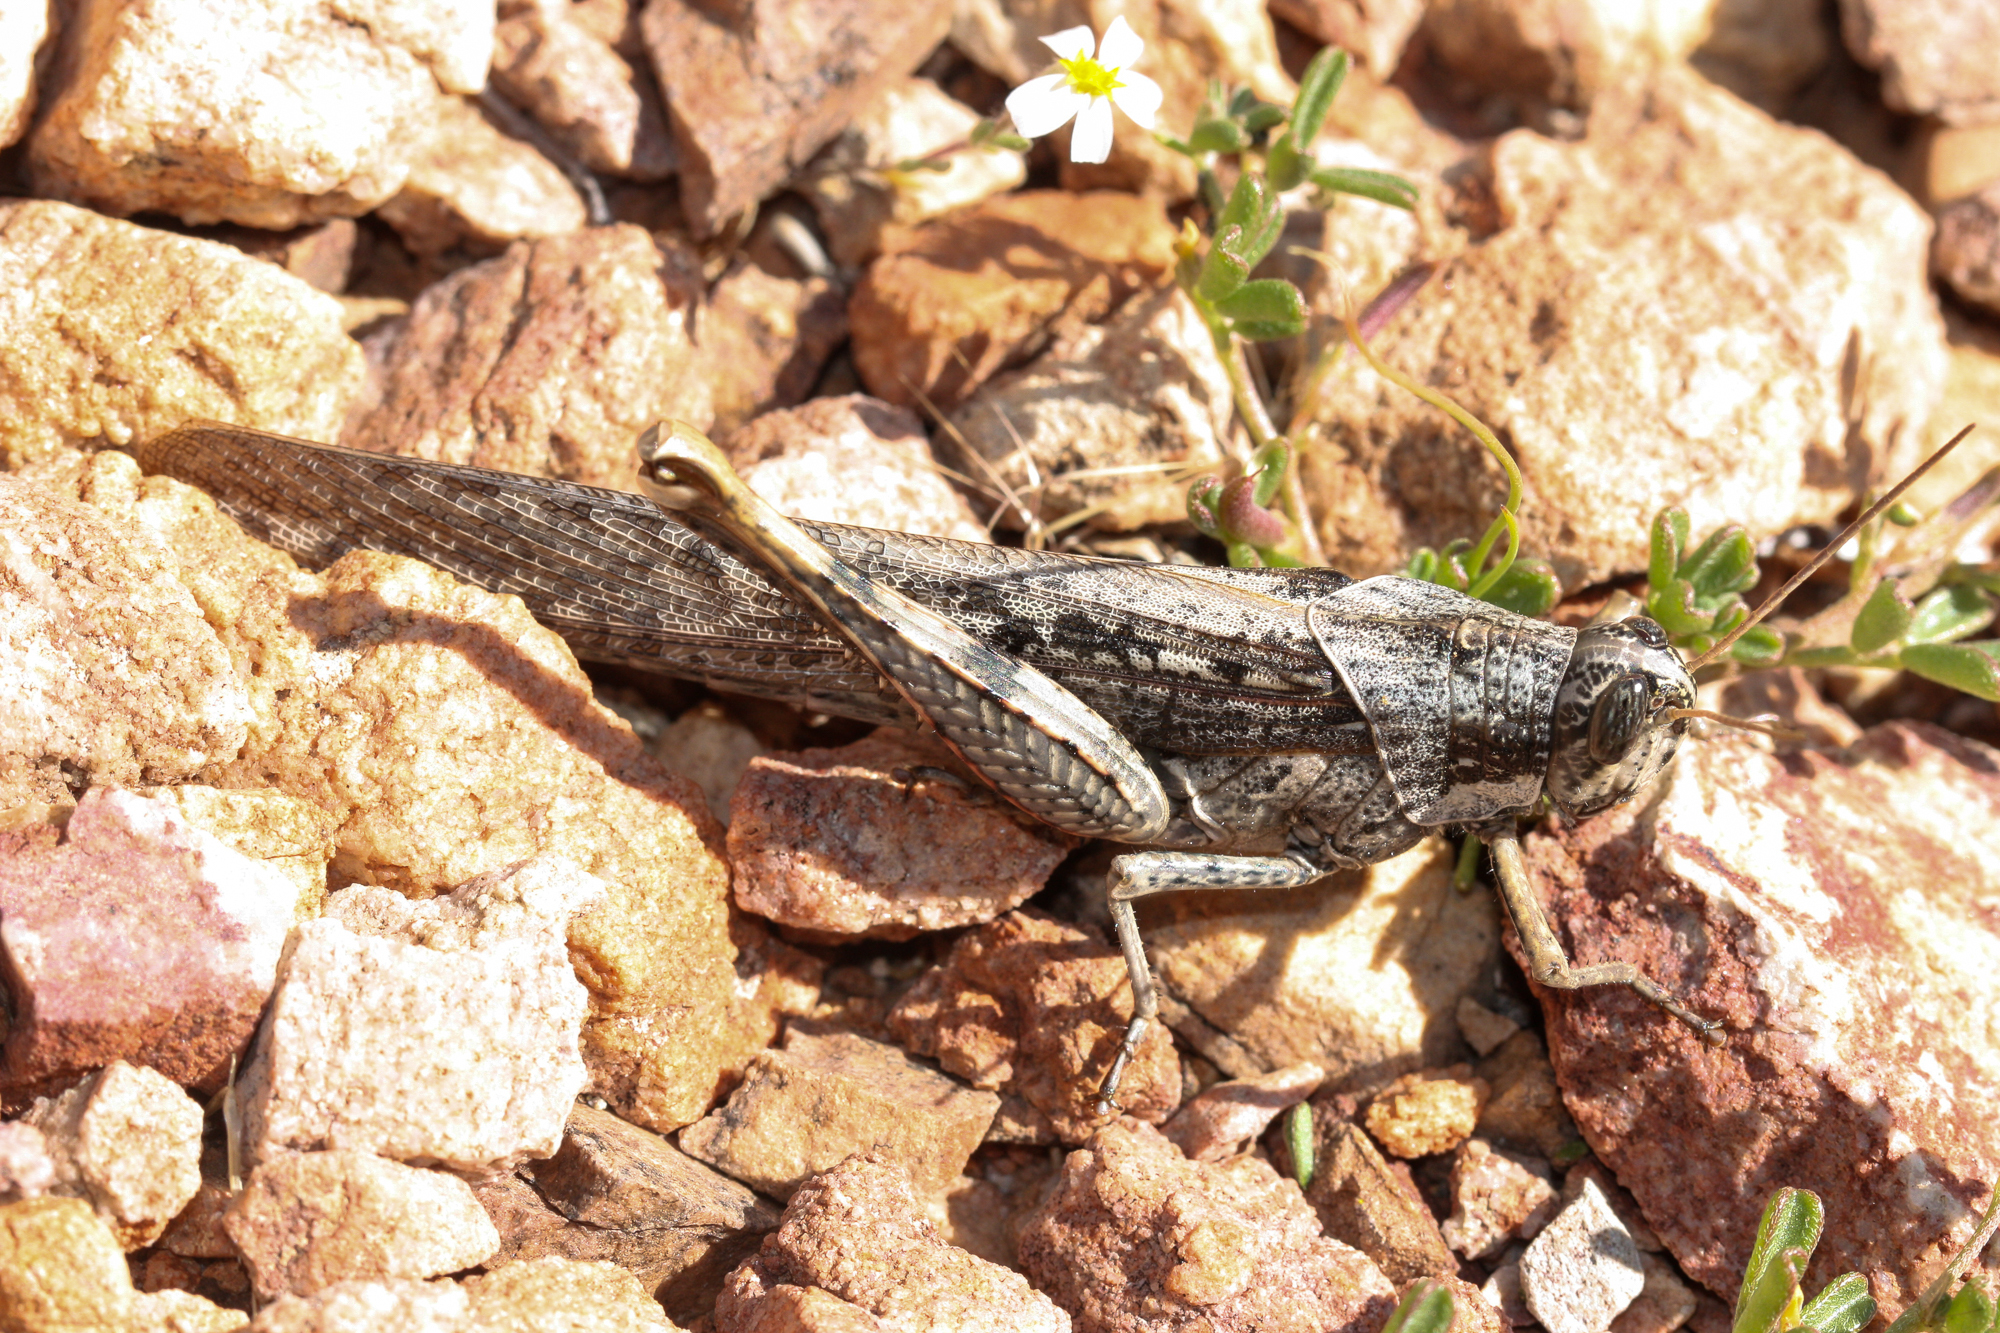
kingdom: Animalia
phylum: Arthropoda
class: Insecta
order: Orthoptera
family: Acrididae
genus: Schistocerca
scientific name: Schistocerca nitens
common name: Vagrant grasshopper
